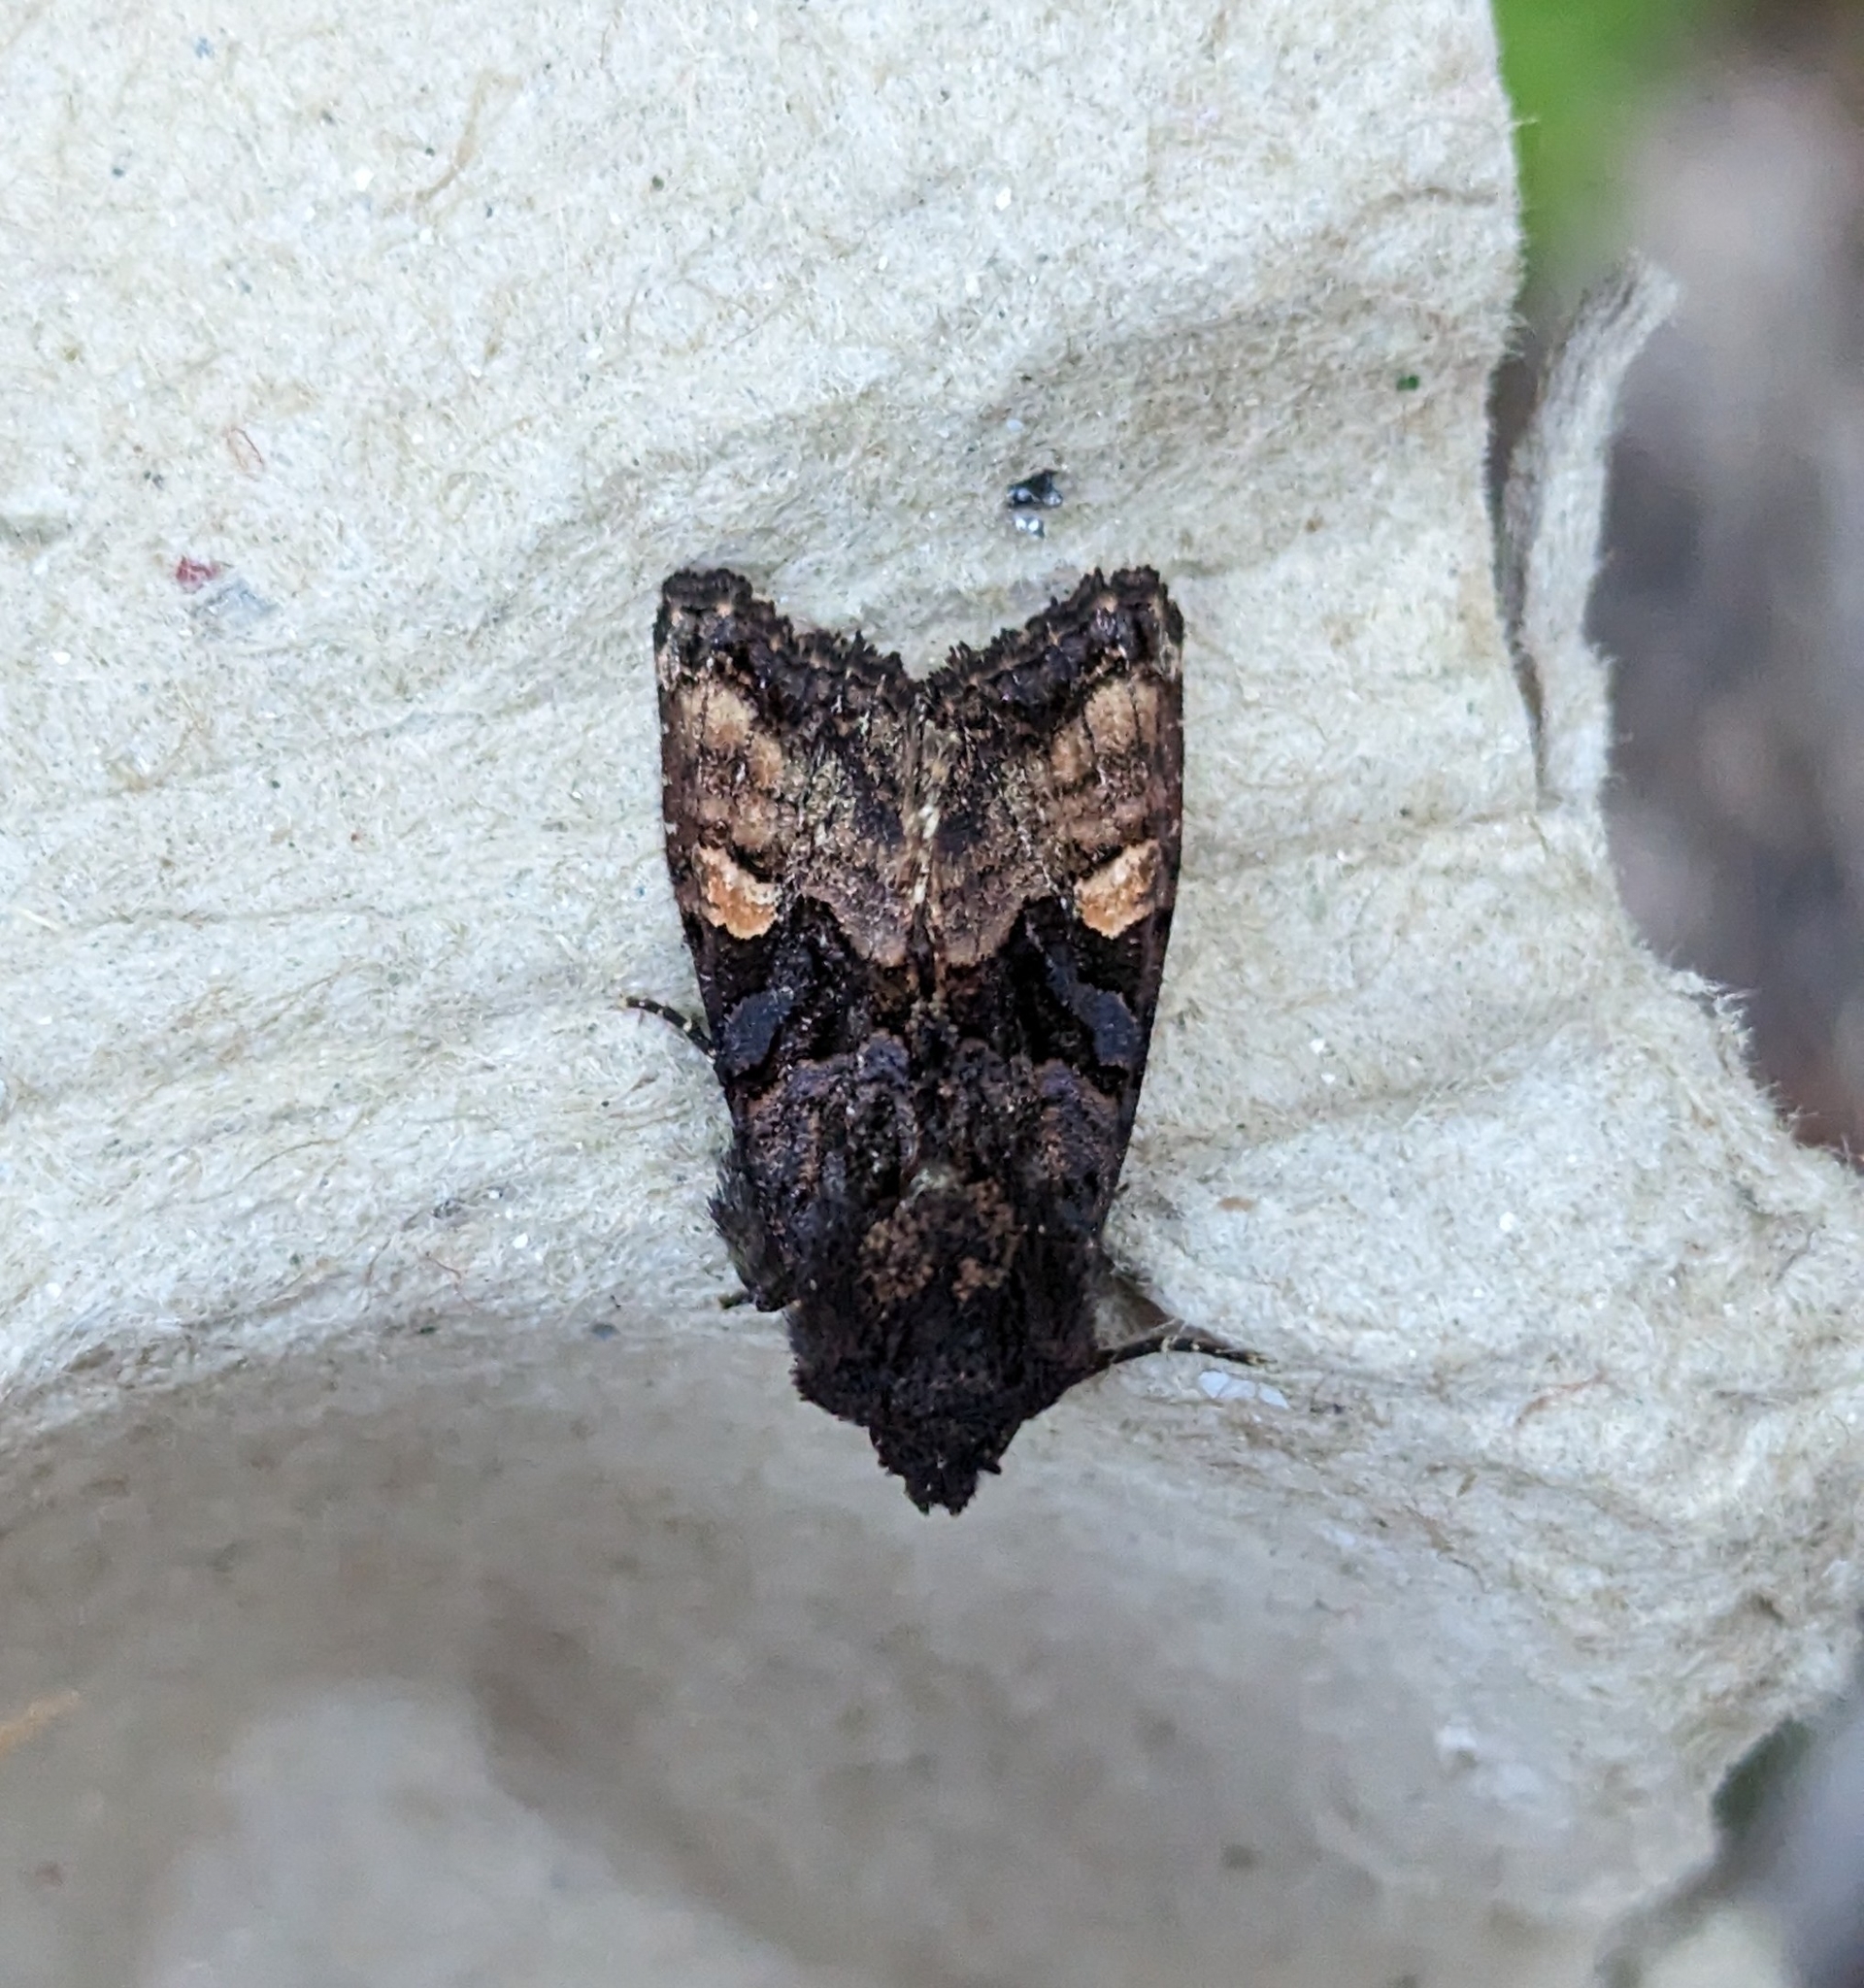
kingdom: Animalia
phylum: Arthropoda
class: Insecta
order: Lepidoptera
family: Noctuidae
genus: Euplexia
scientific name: Euplexia benesimilis
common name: American angle shades
